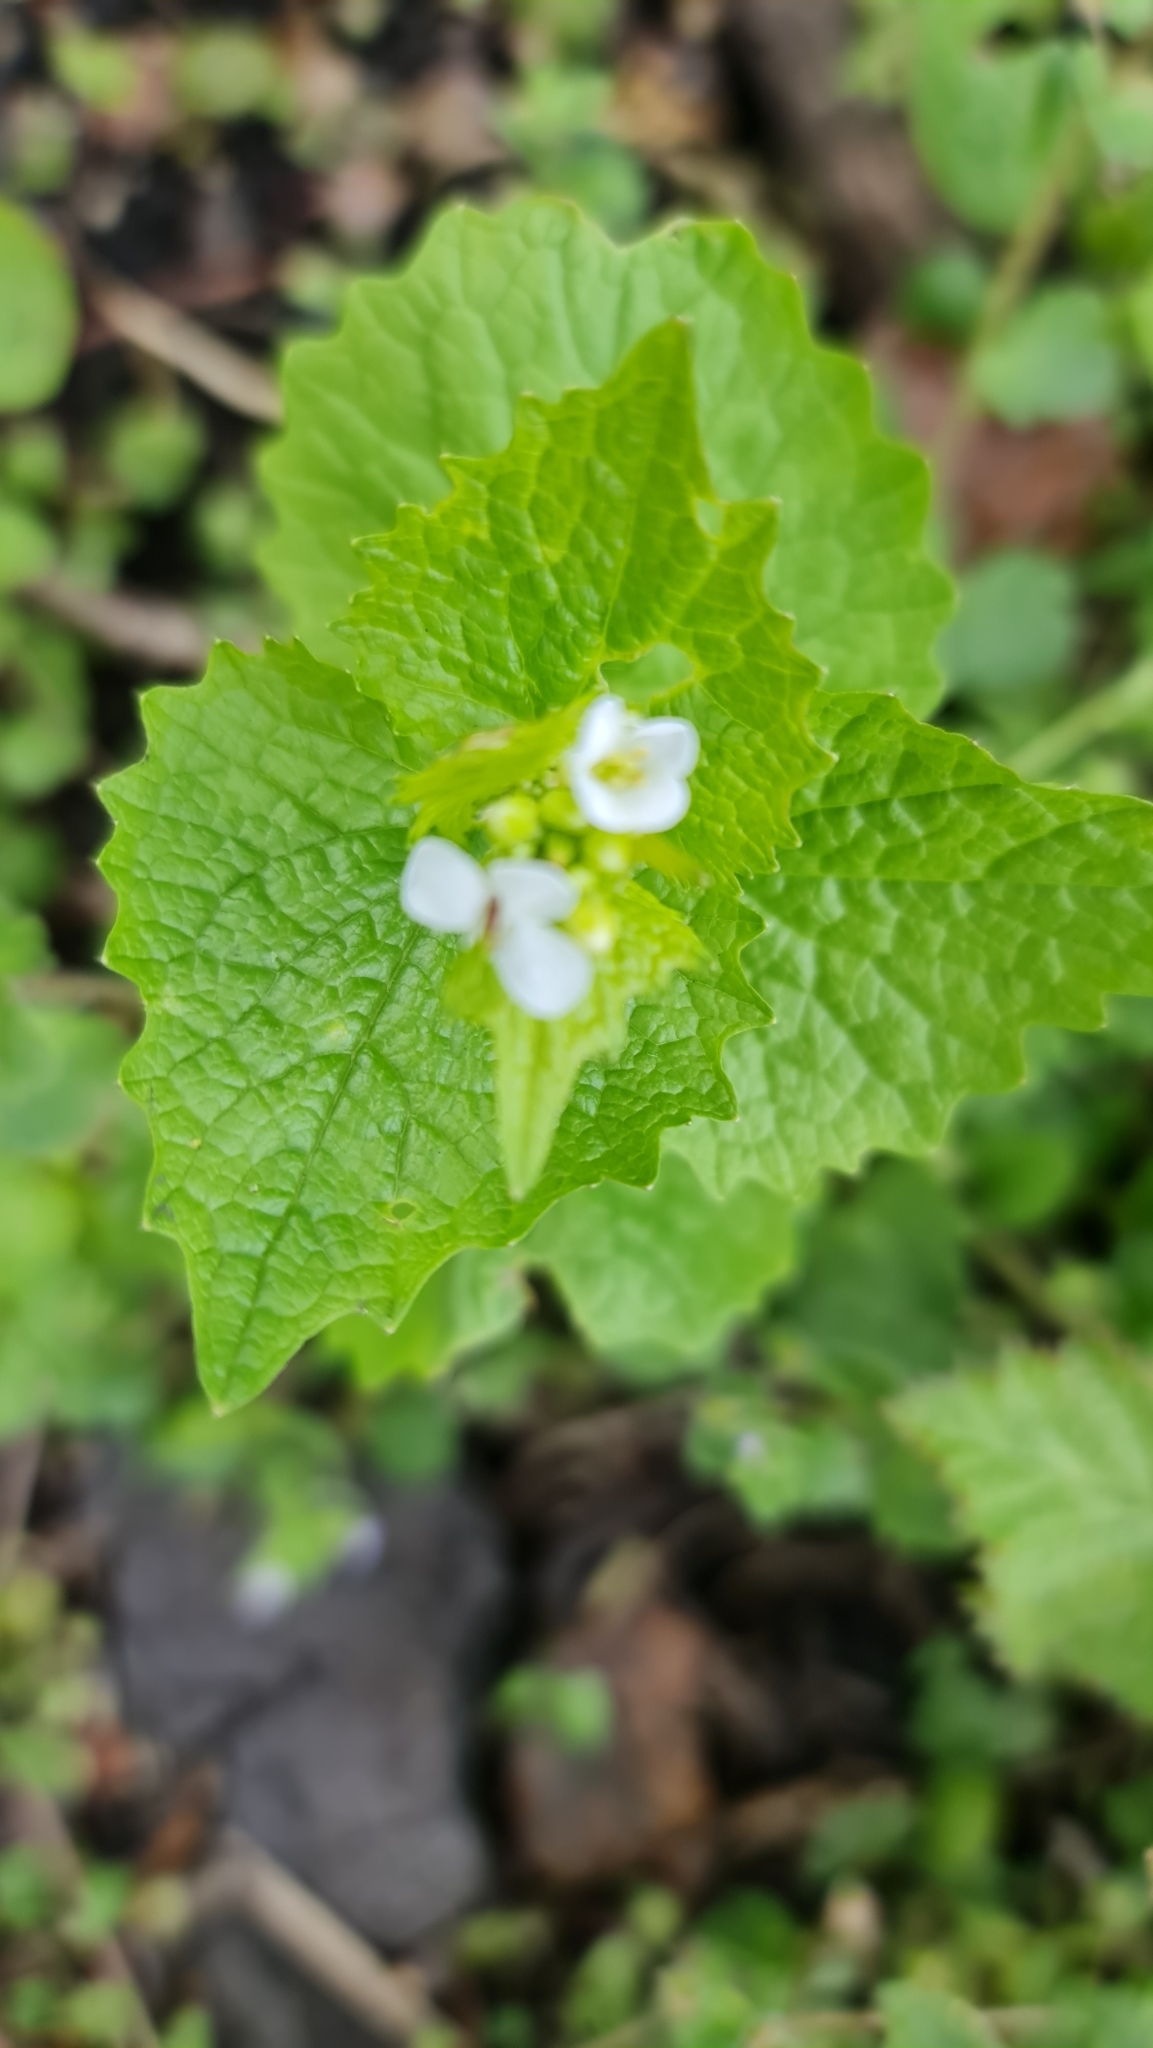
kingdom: Plantae
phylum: Tracheophyta
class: Magnoliopsida
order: Brassicales
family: Brassicaceae
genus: Alliaria
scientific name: Alliaria petiolata
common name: Garlic mustard
